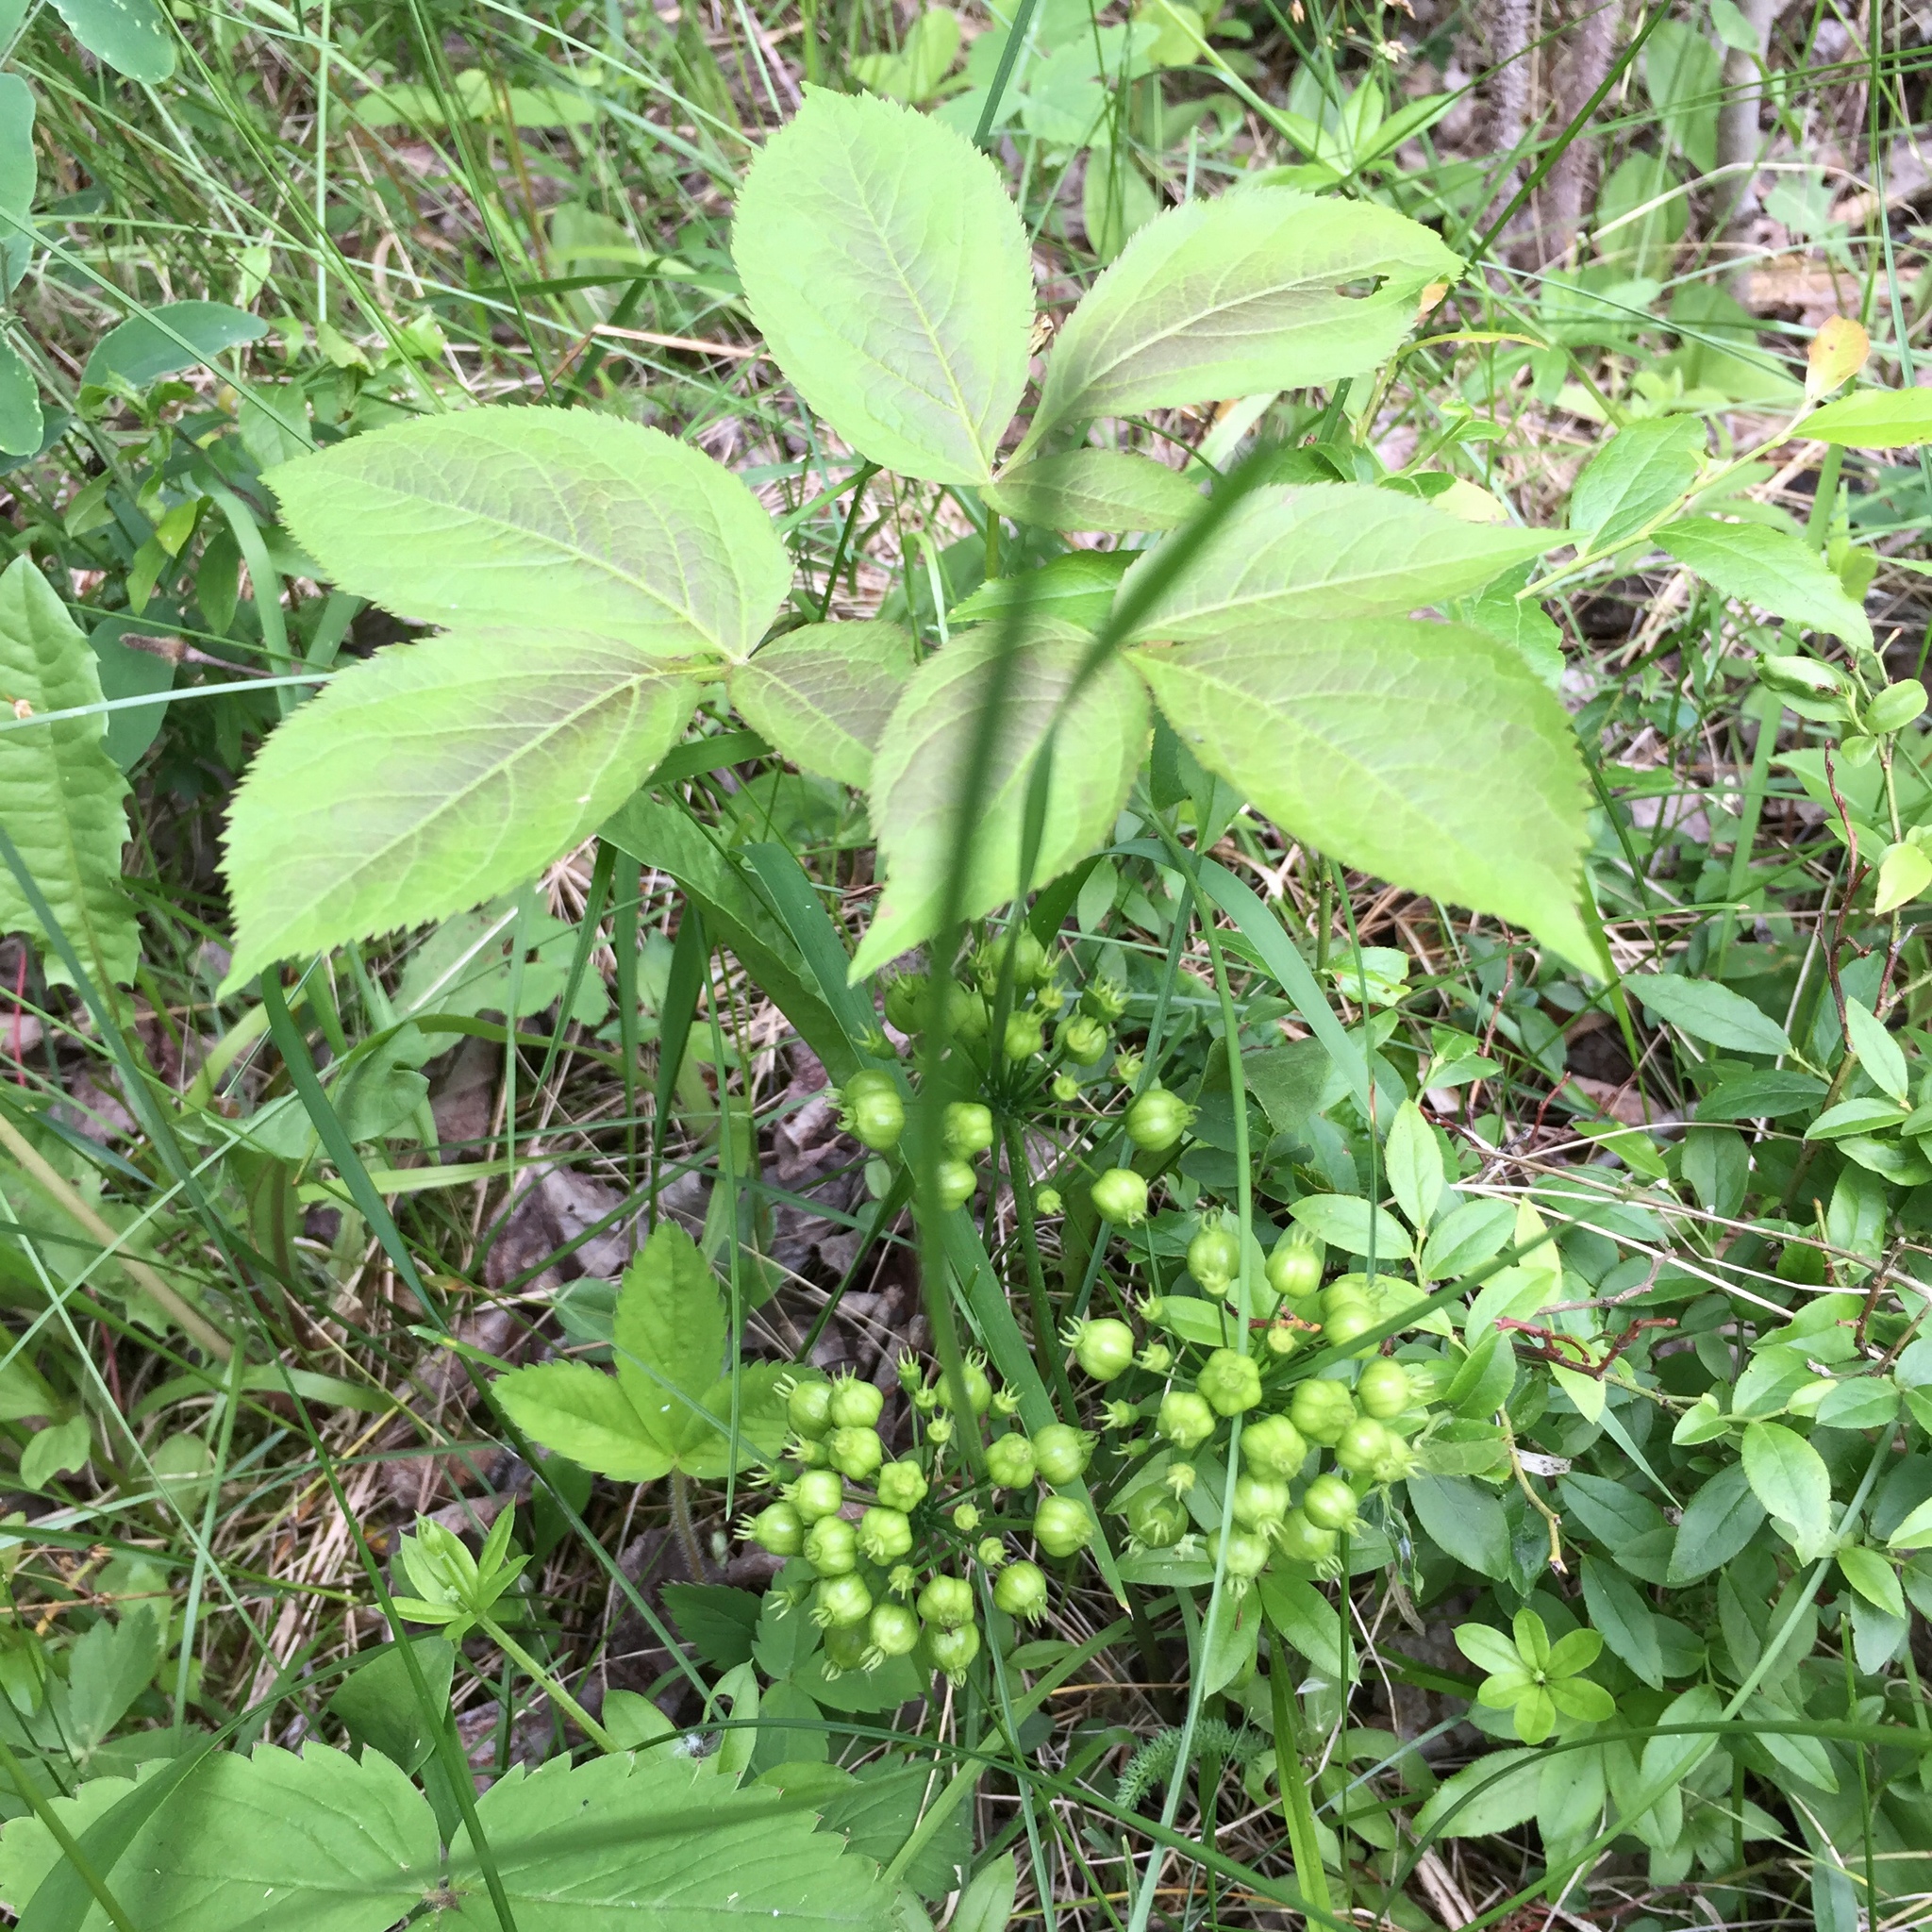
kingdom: Plantae
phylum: Tracheophyta
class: Magnoliopsida
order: Apiales
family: Araliaceae
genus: Aralia
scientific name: Aralia nudicaulis
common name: Wild sarsaparilla
